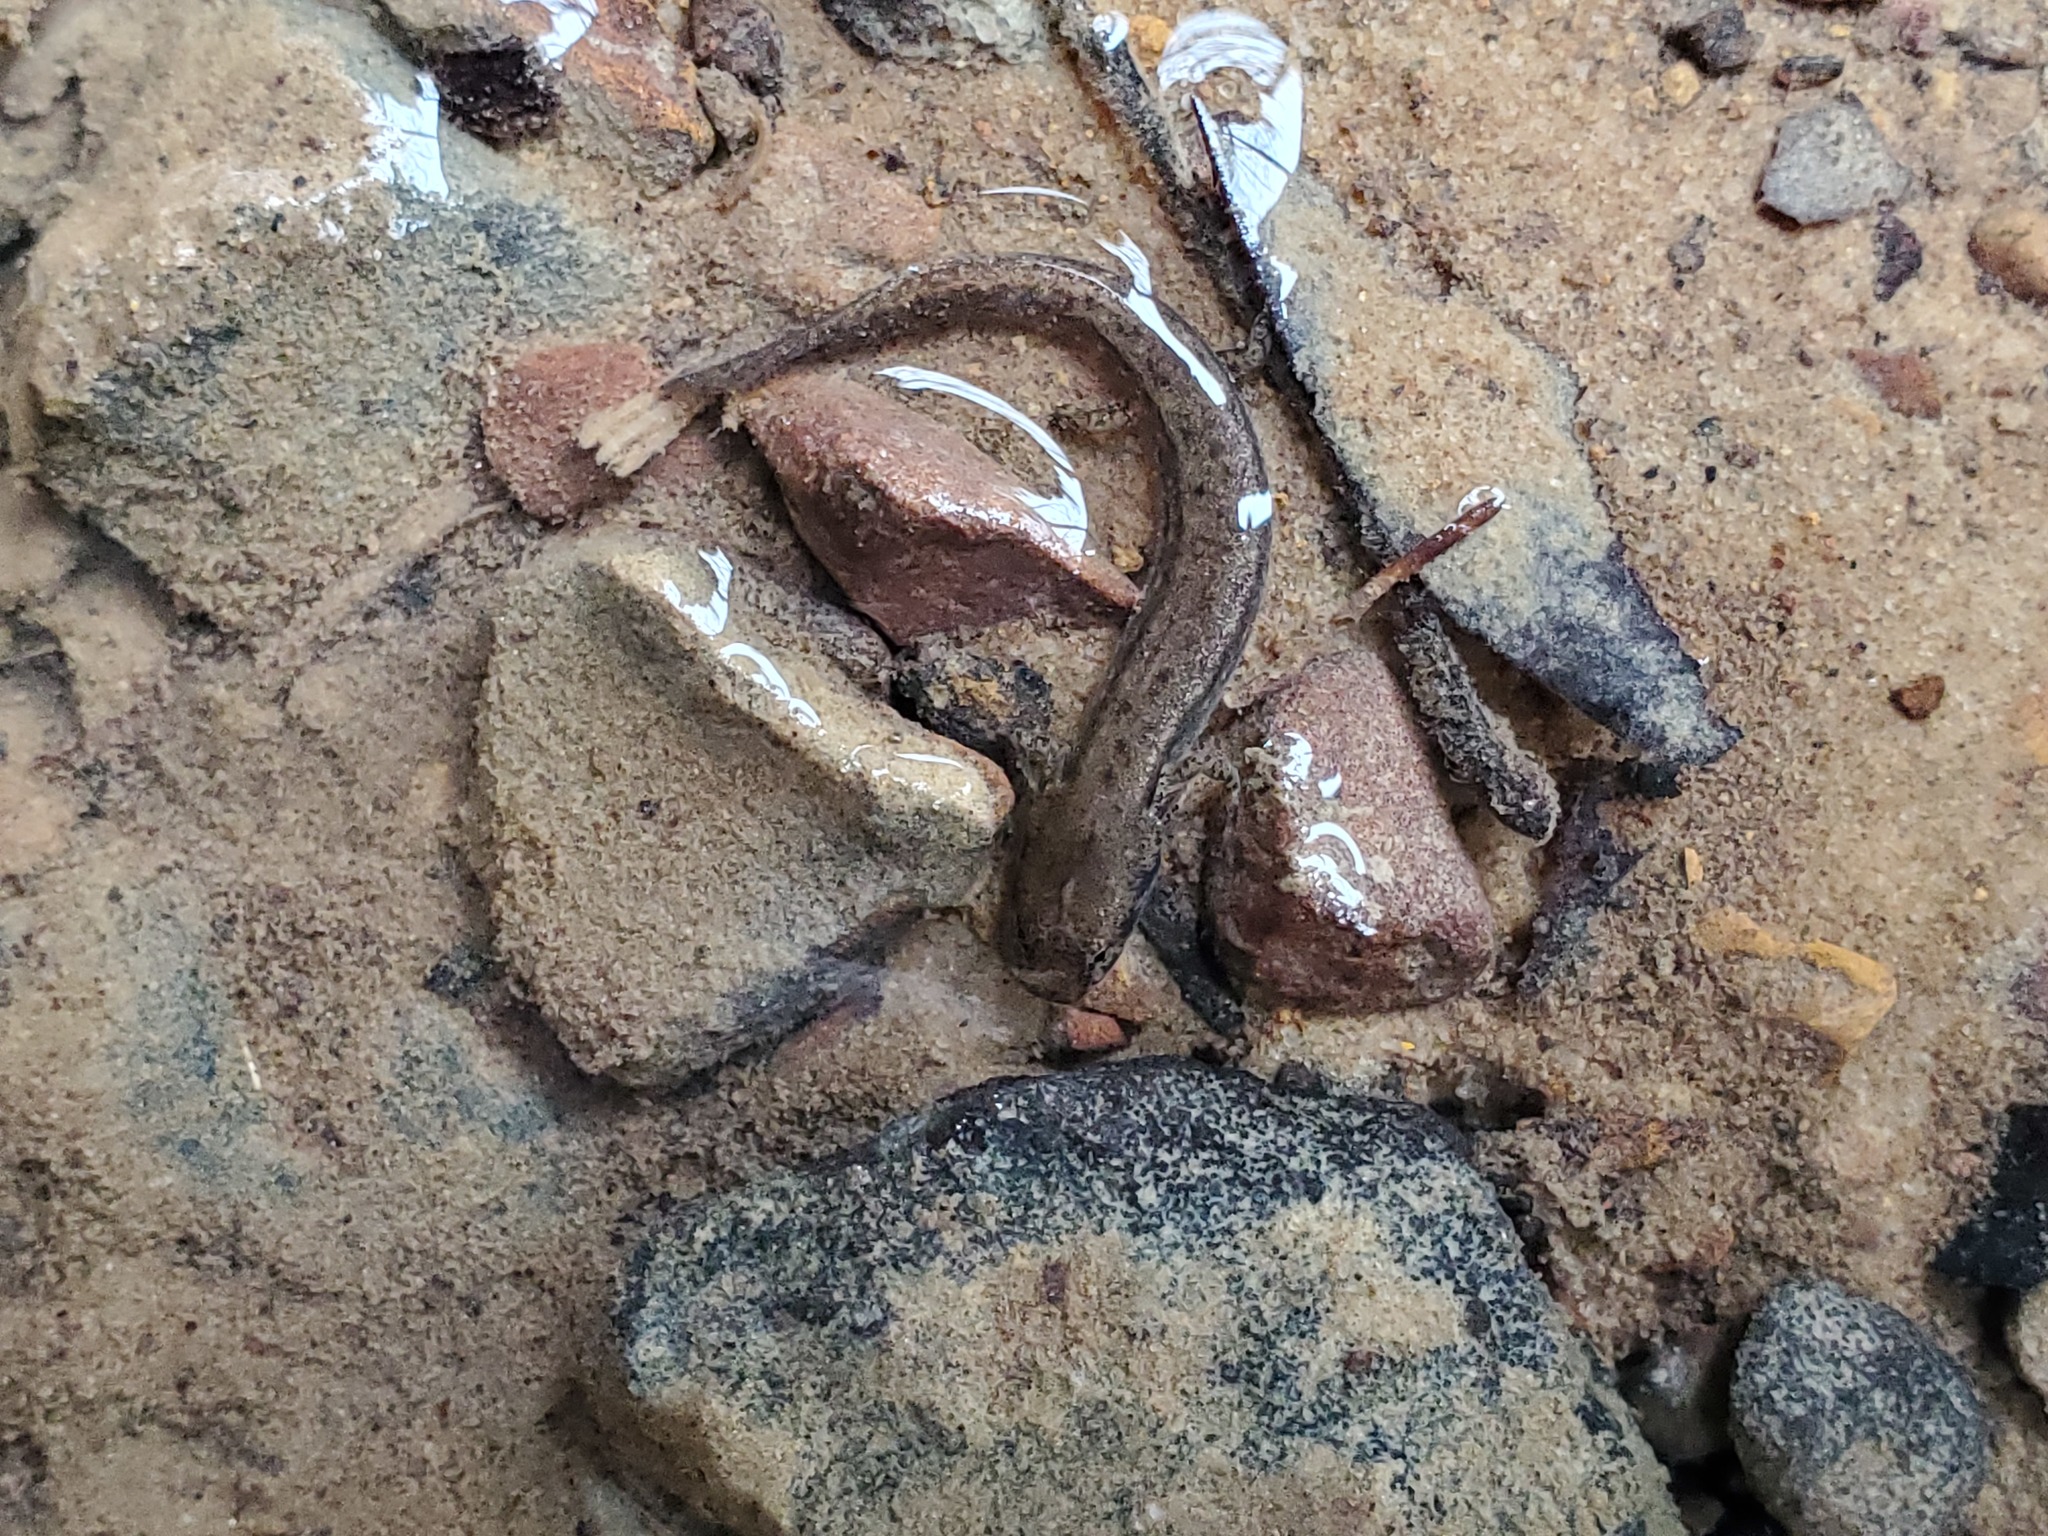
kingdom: Animalia
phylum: Chordata
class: Amphibia
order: Caudata
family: Plethodontidae
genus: Eurycea
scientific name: Eurycea cirrigera
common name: Southern two-lined salamander
